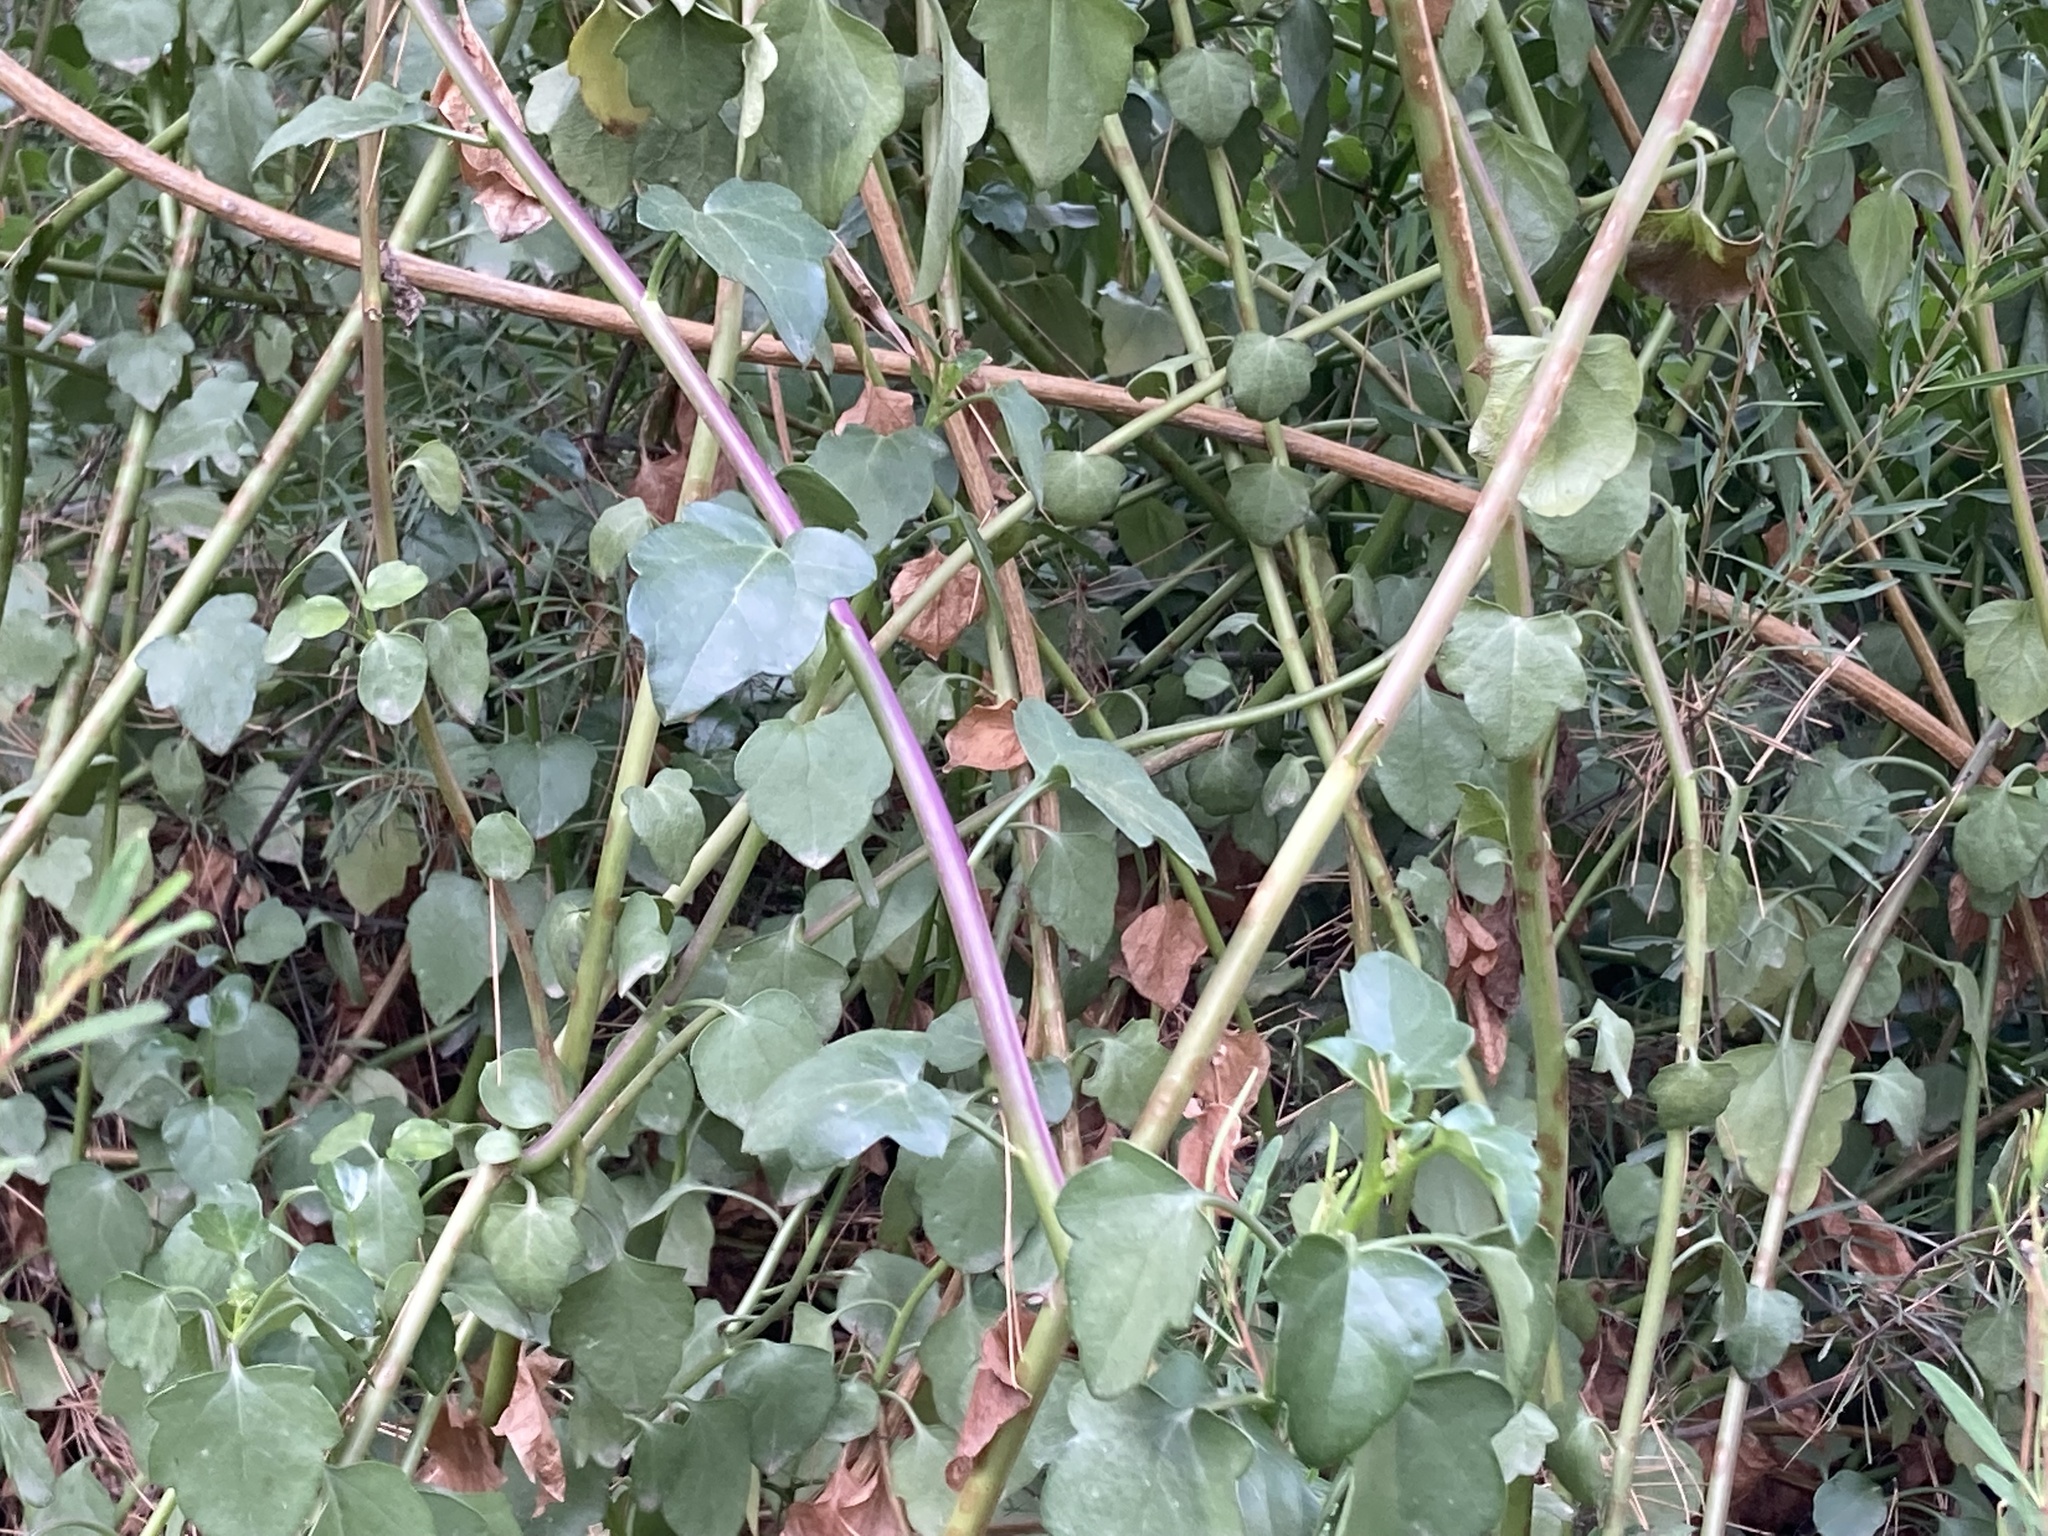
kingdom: Plantae
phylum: Tracheophyta
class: Magnoliopsida
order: Asterales
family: Asteraceae
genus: Senecio
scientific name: Senecio angulatus
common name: Climbing groundsel
